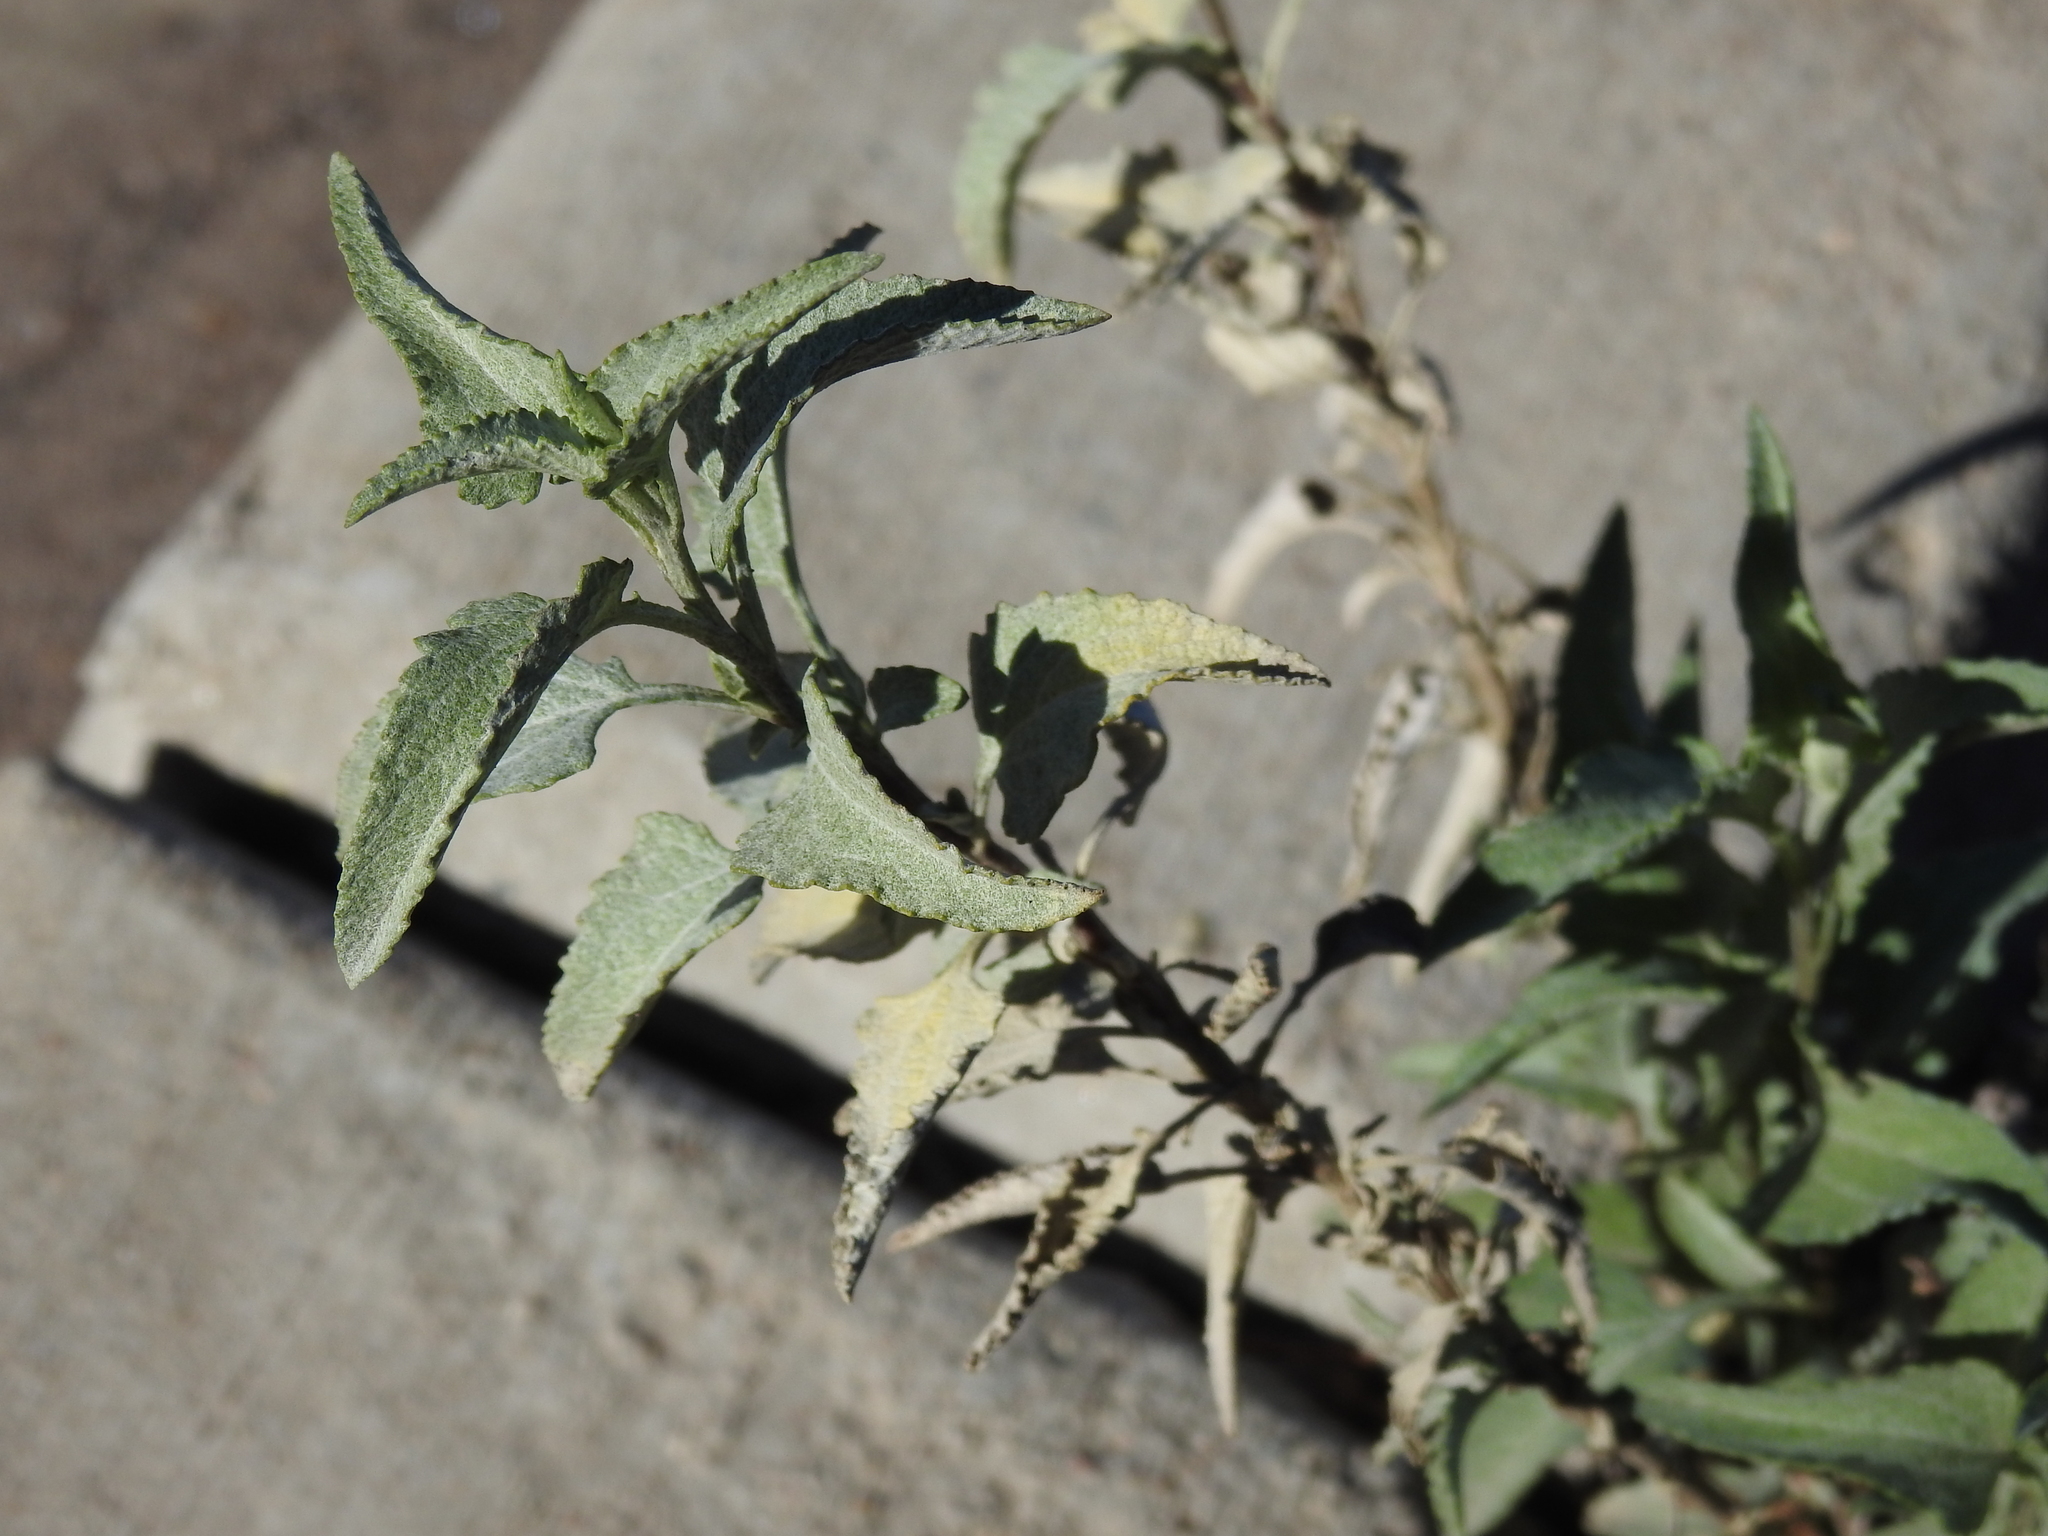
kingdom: Plantae
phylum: Tracheophyta
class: Magnoliopsida
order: Asterales
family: Asteraceae
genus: Ambrosia
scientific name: Ambrosia deltoidea
